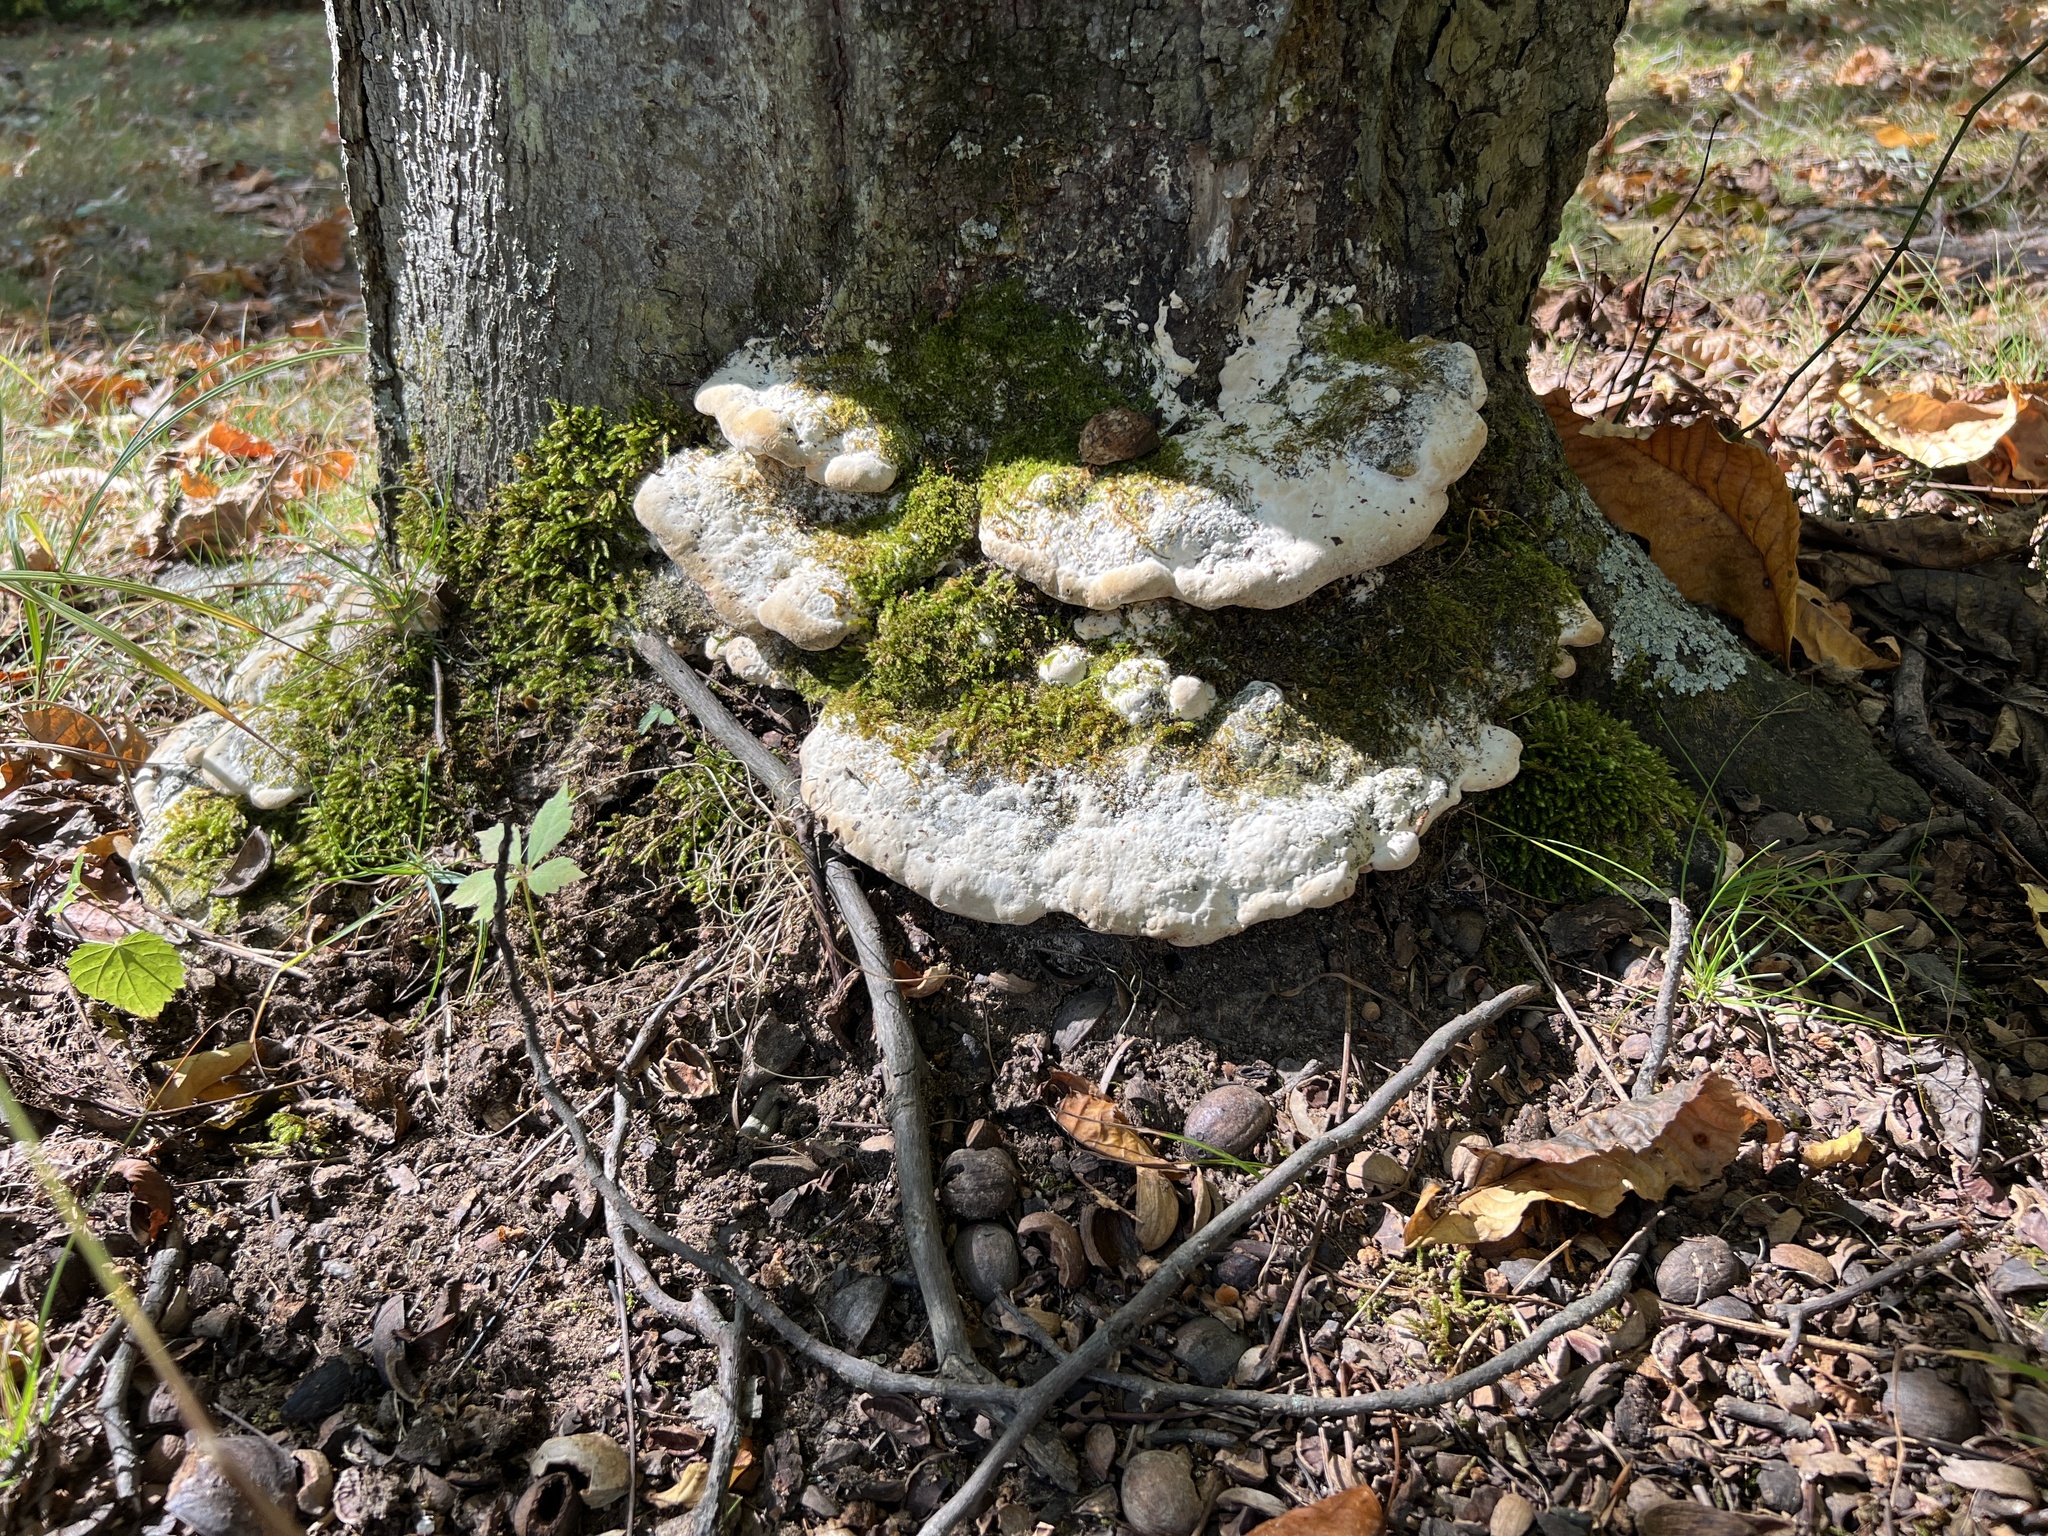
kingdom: Fungi
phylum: Basidiomycota
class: Agaricomycetes
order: Hymenochaetales
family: Oxyporaceae
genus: Oxyporus
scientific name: Oxyporus populinus
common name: Poplar bracket
